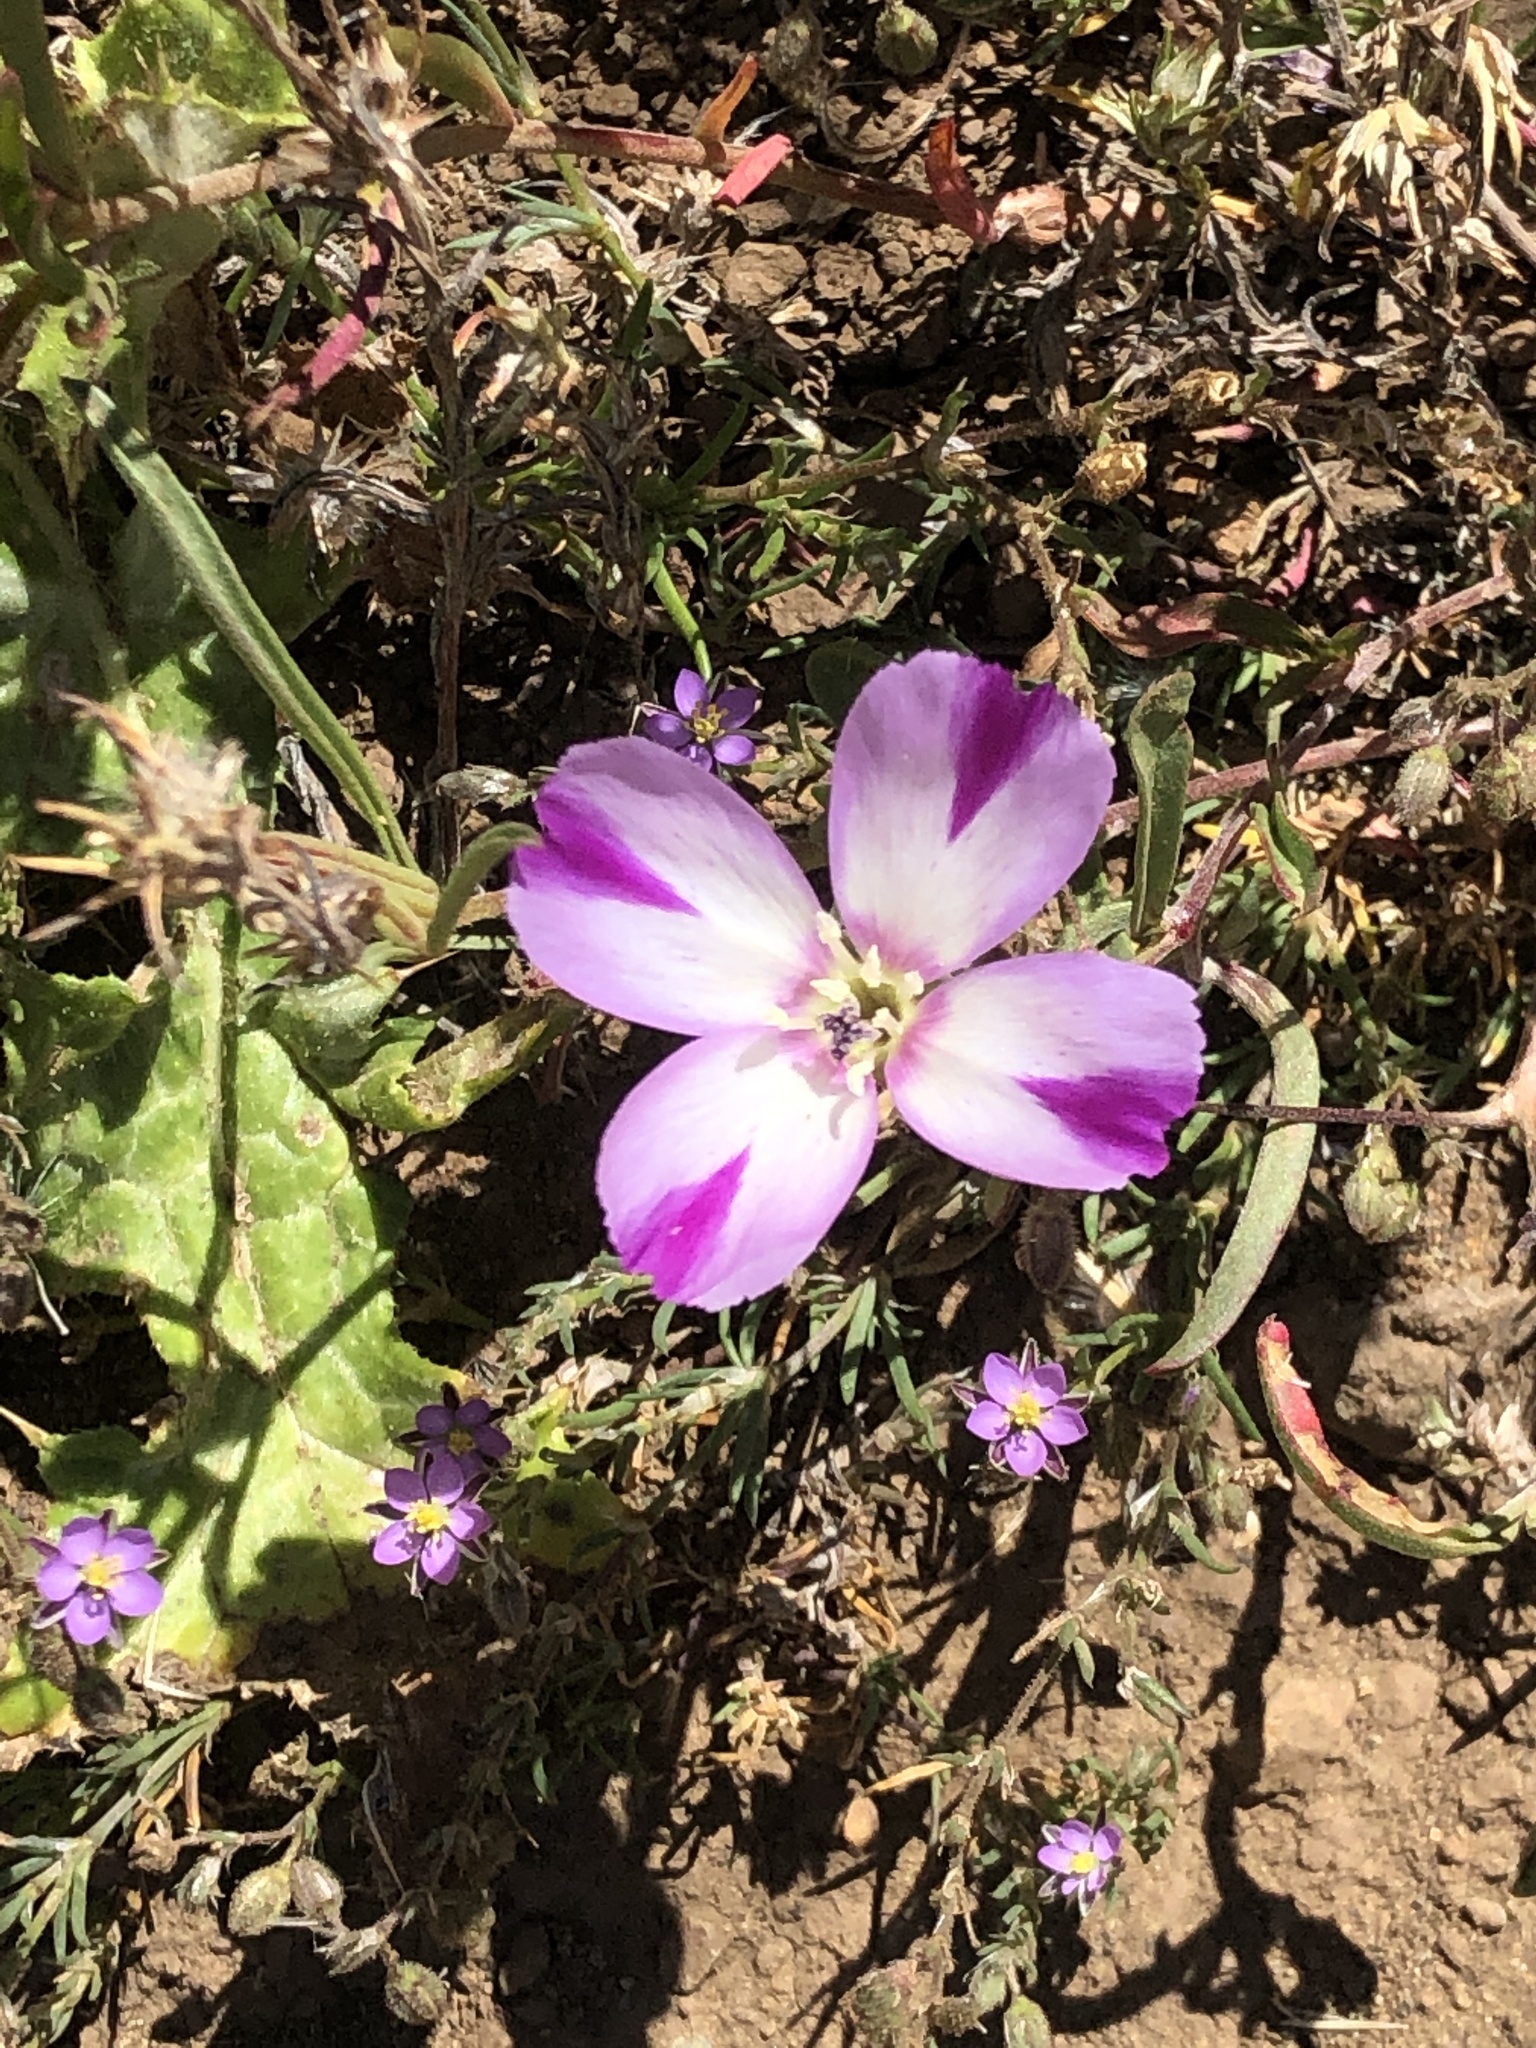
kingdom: Plantae
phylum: Tracheophyta
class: Magnoliopsida
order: Myrtales
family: Onagraceae
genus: Clarkia
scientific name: Clarkia purpurea
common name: Purple clarkia
